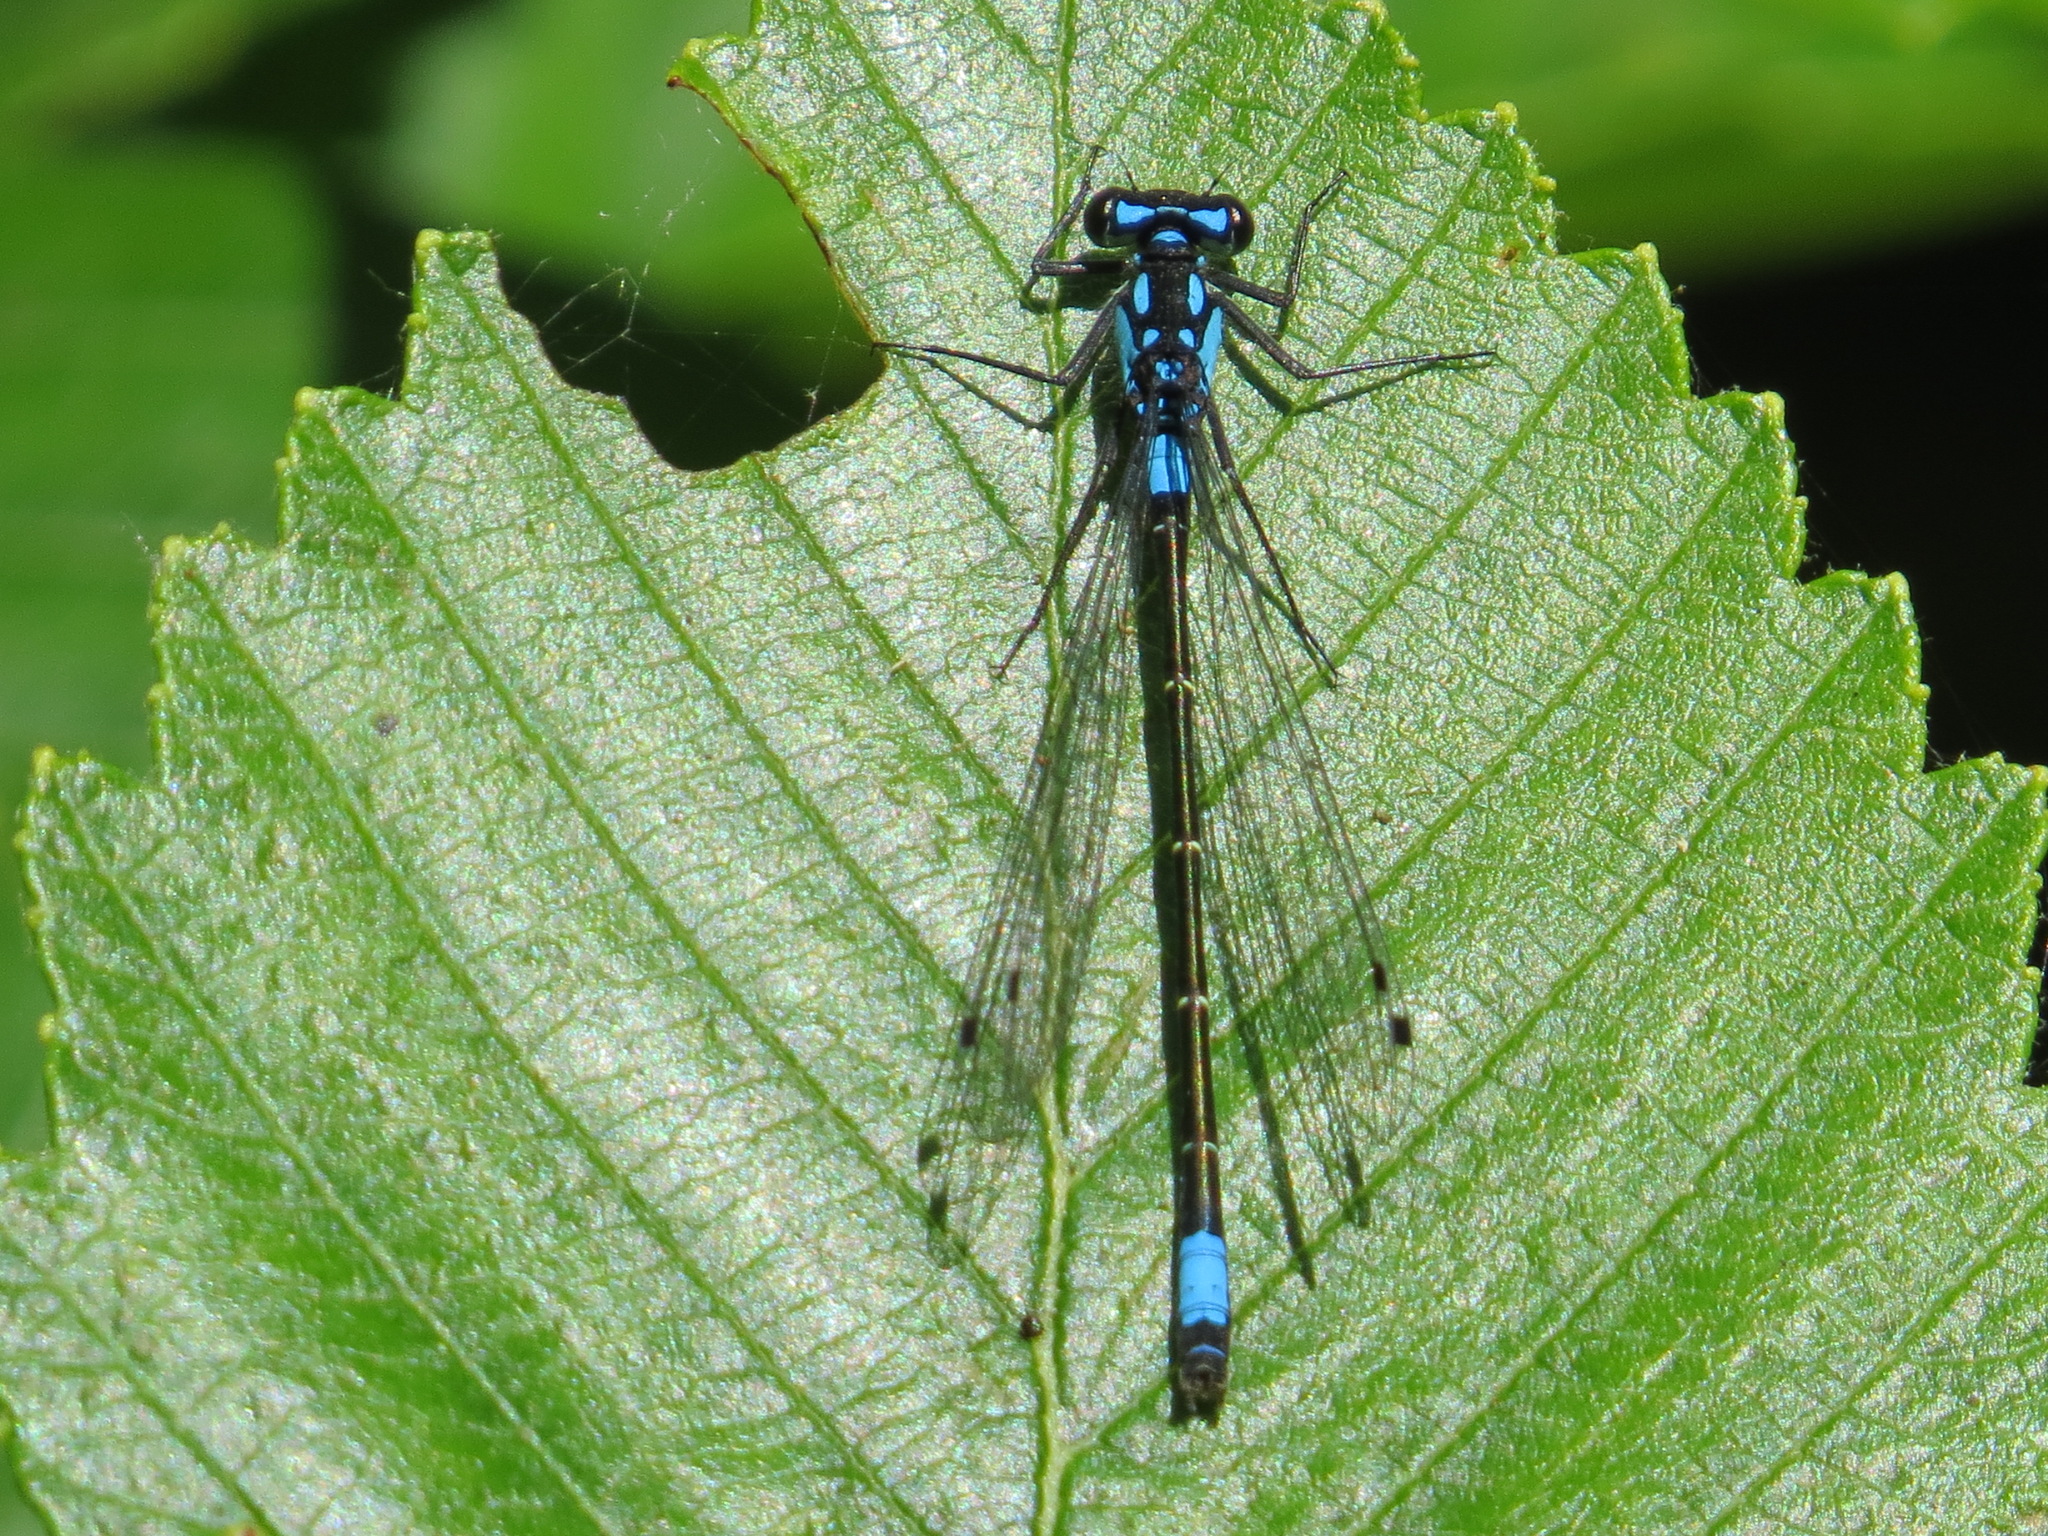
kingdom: Animalia
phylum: Arthropoda
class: Insecta
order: Odonata
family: Coenagrionidae
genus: Zoniagrion
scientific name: Zoniagrion exclamationis
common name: Exclamation damsel
